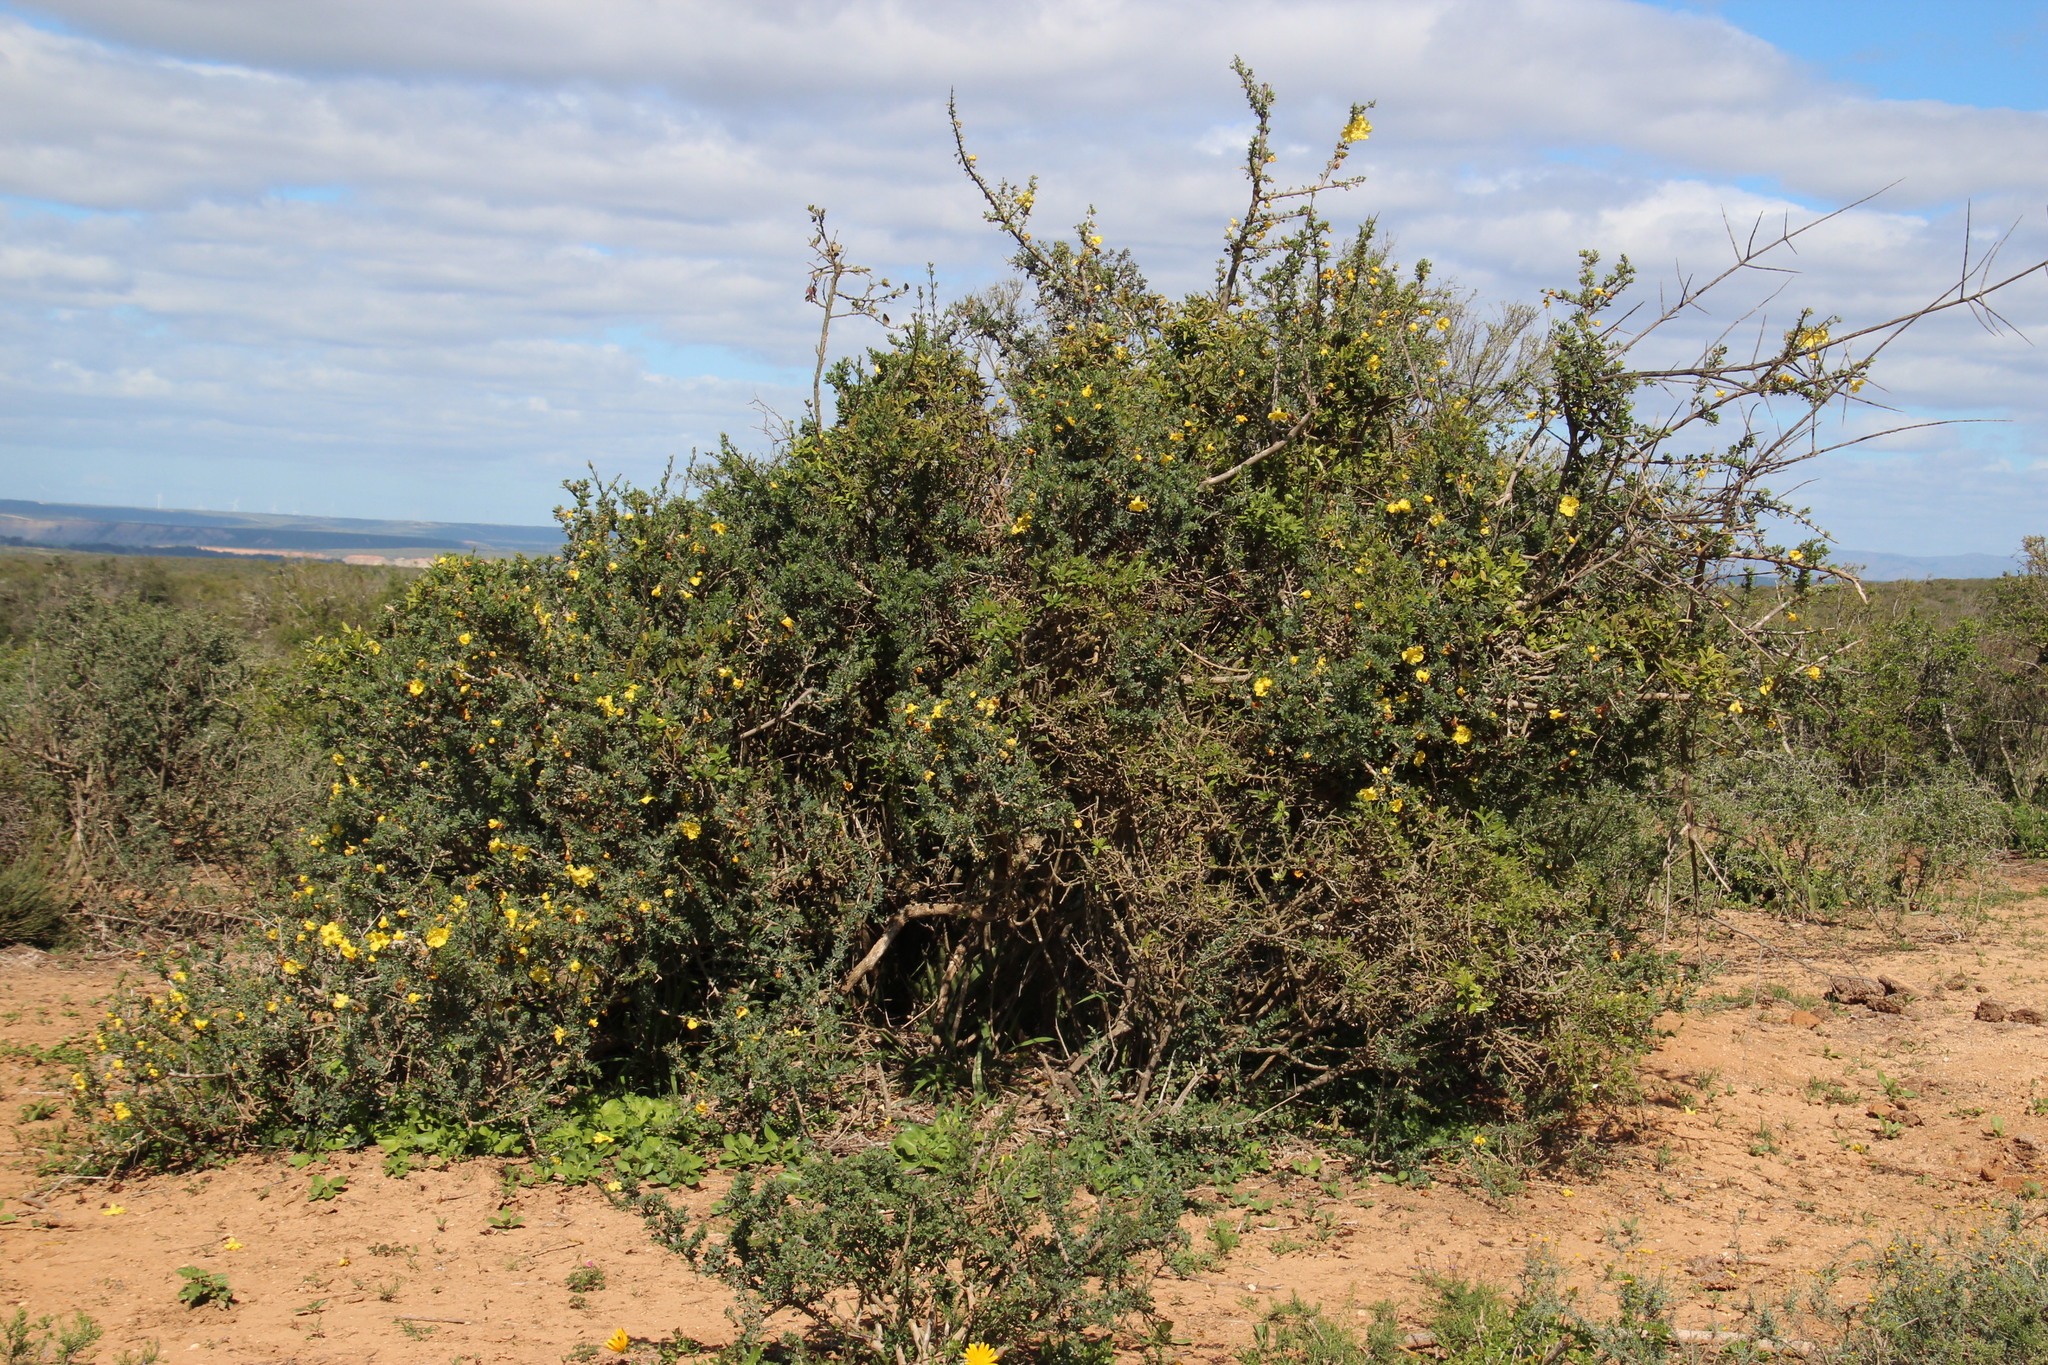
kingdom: Plantae
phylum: Tracheophyta
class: Magnoliopsida
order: Lamiales
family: Bignoniaceae
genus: Rhigozum
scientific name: Rhigozum obovatum
